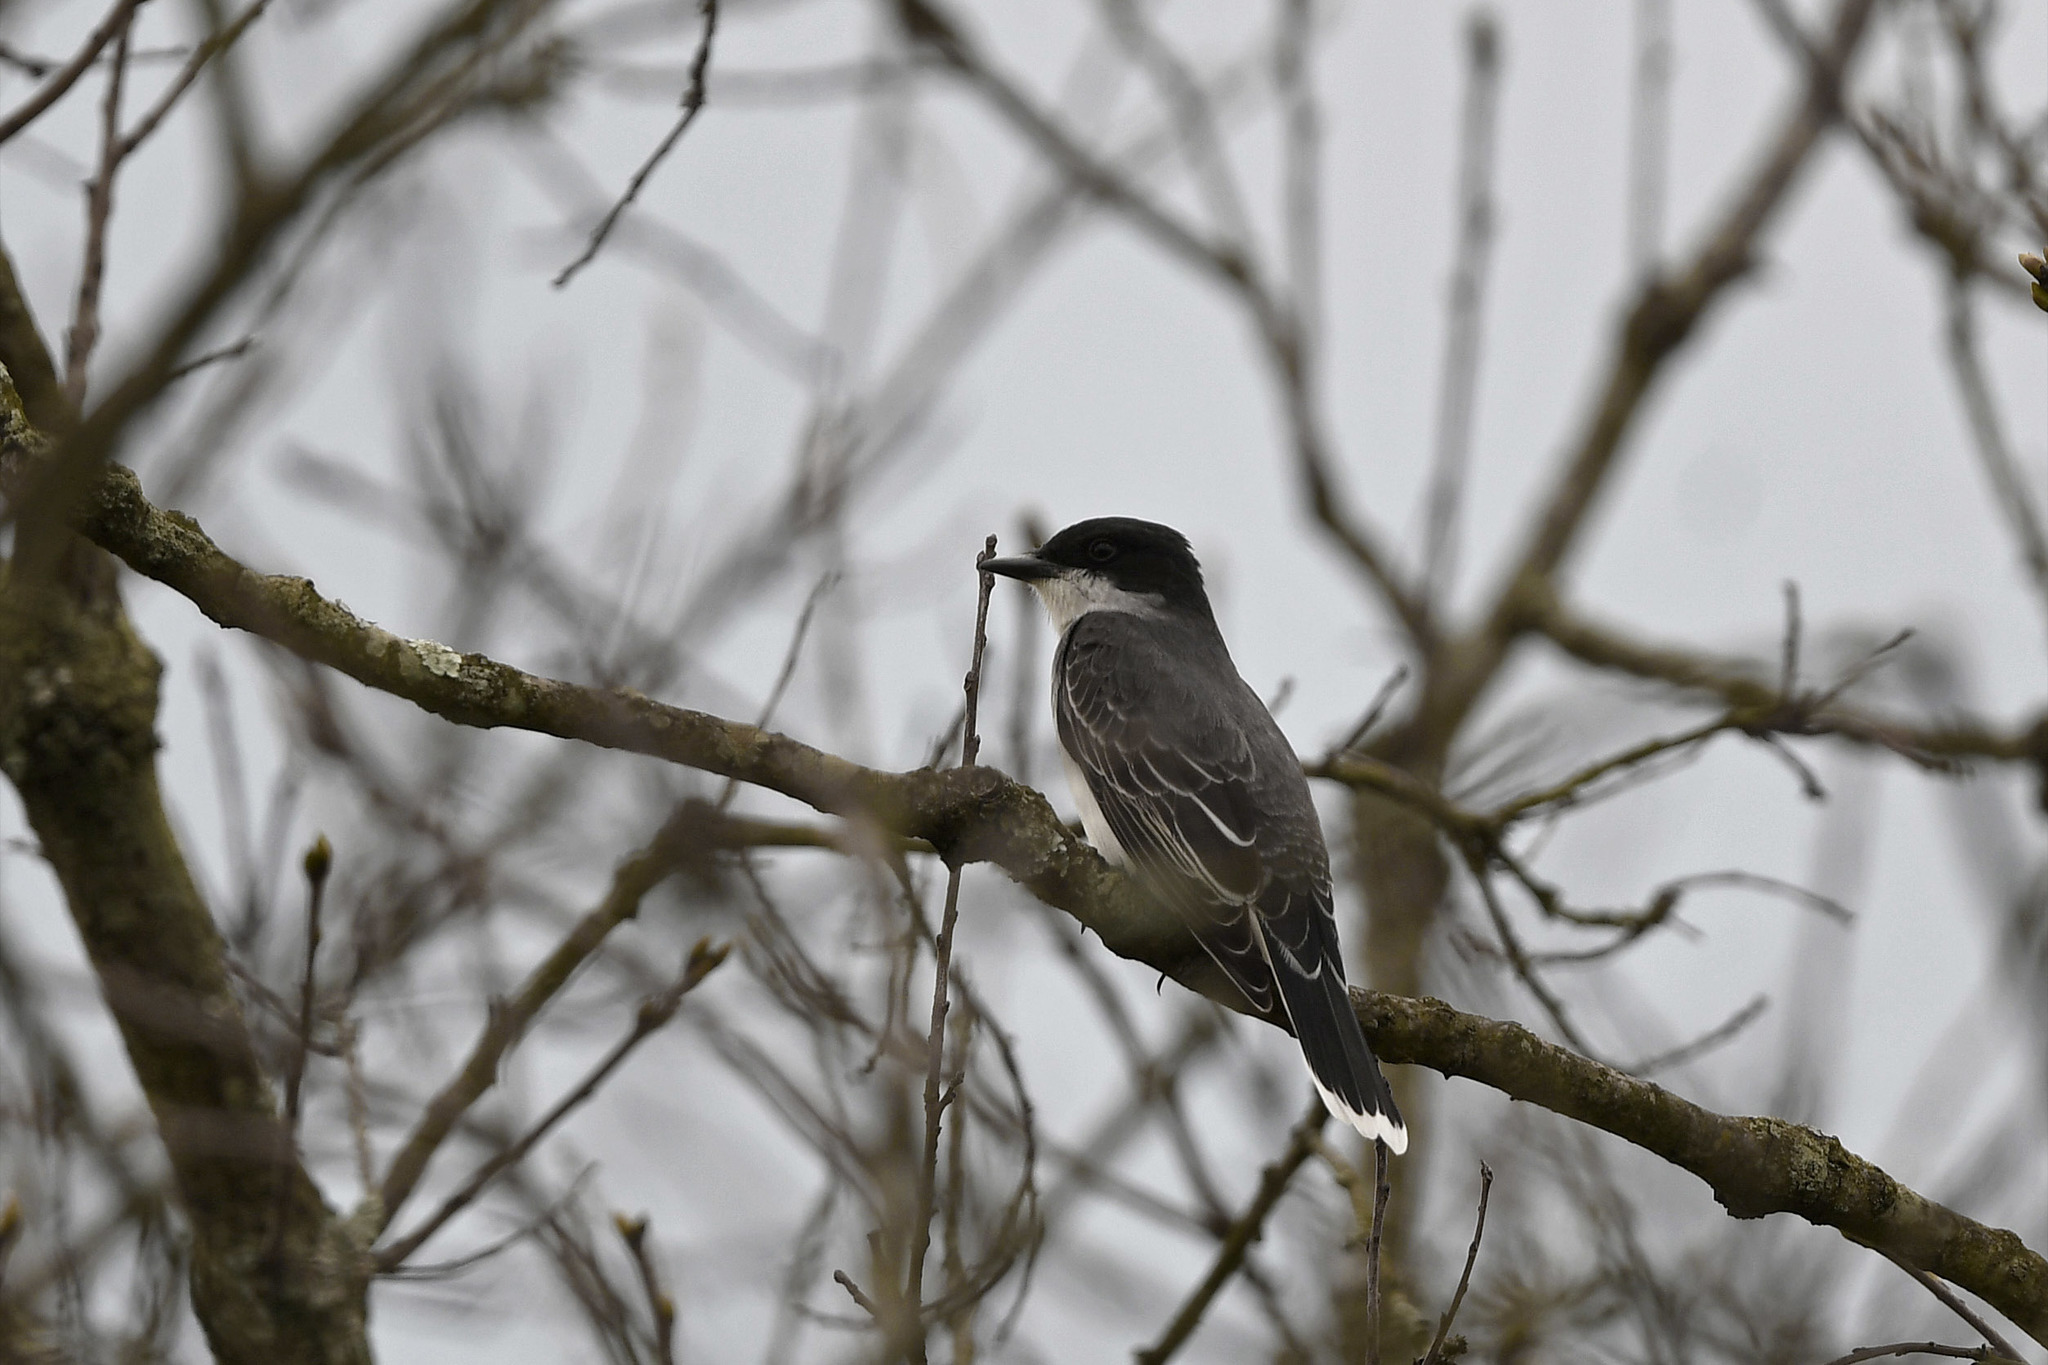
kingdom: Animalia
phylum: Chordata
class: Aves
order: Passeriformes
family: Tyrannidae
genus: Tyrannus
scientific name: Tyrannus tyrannus
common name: Eastern kingbird
